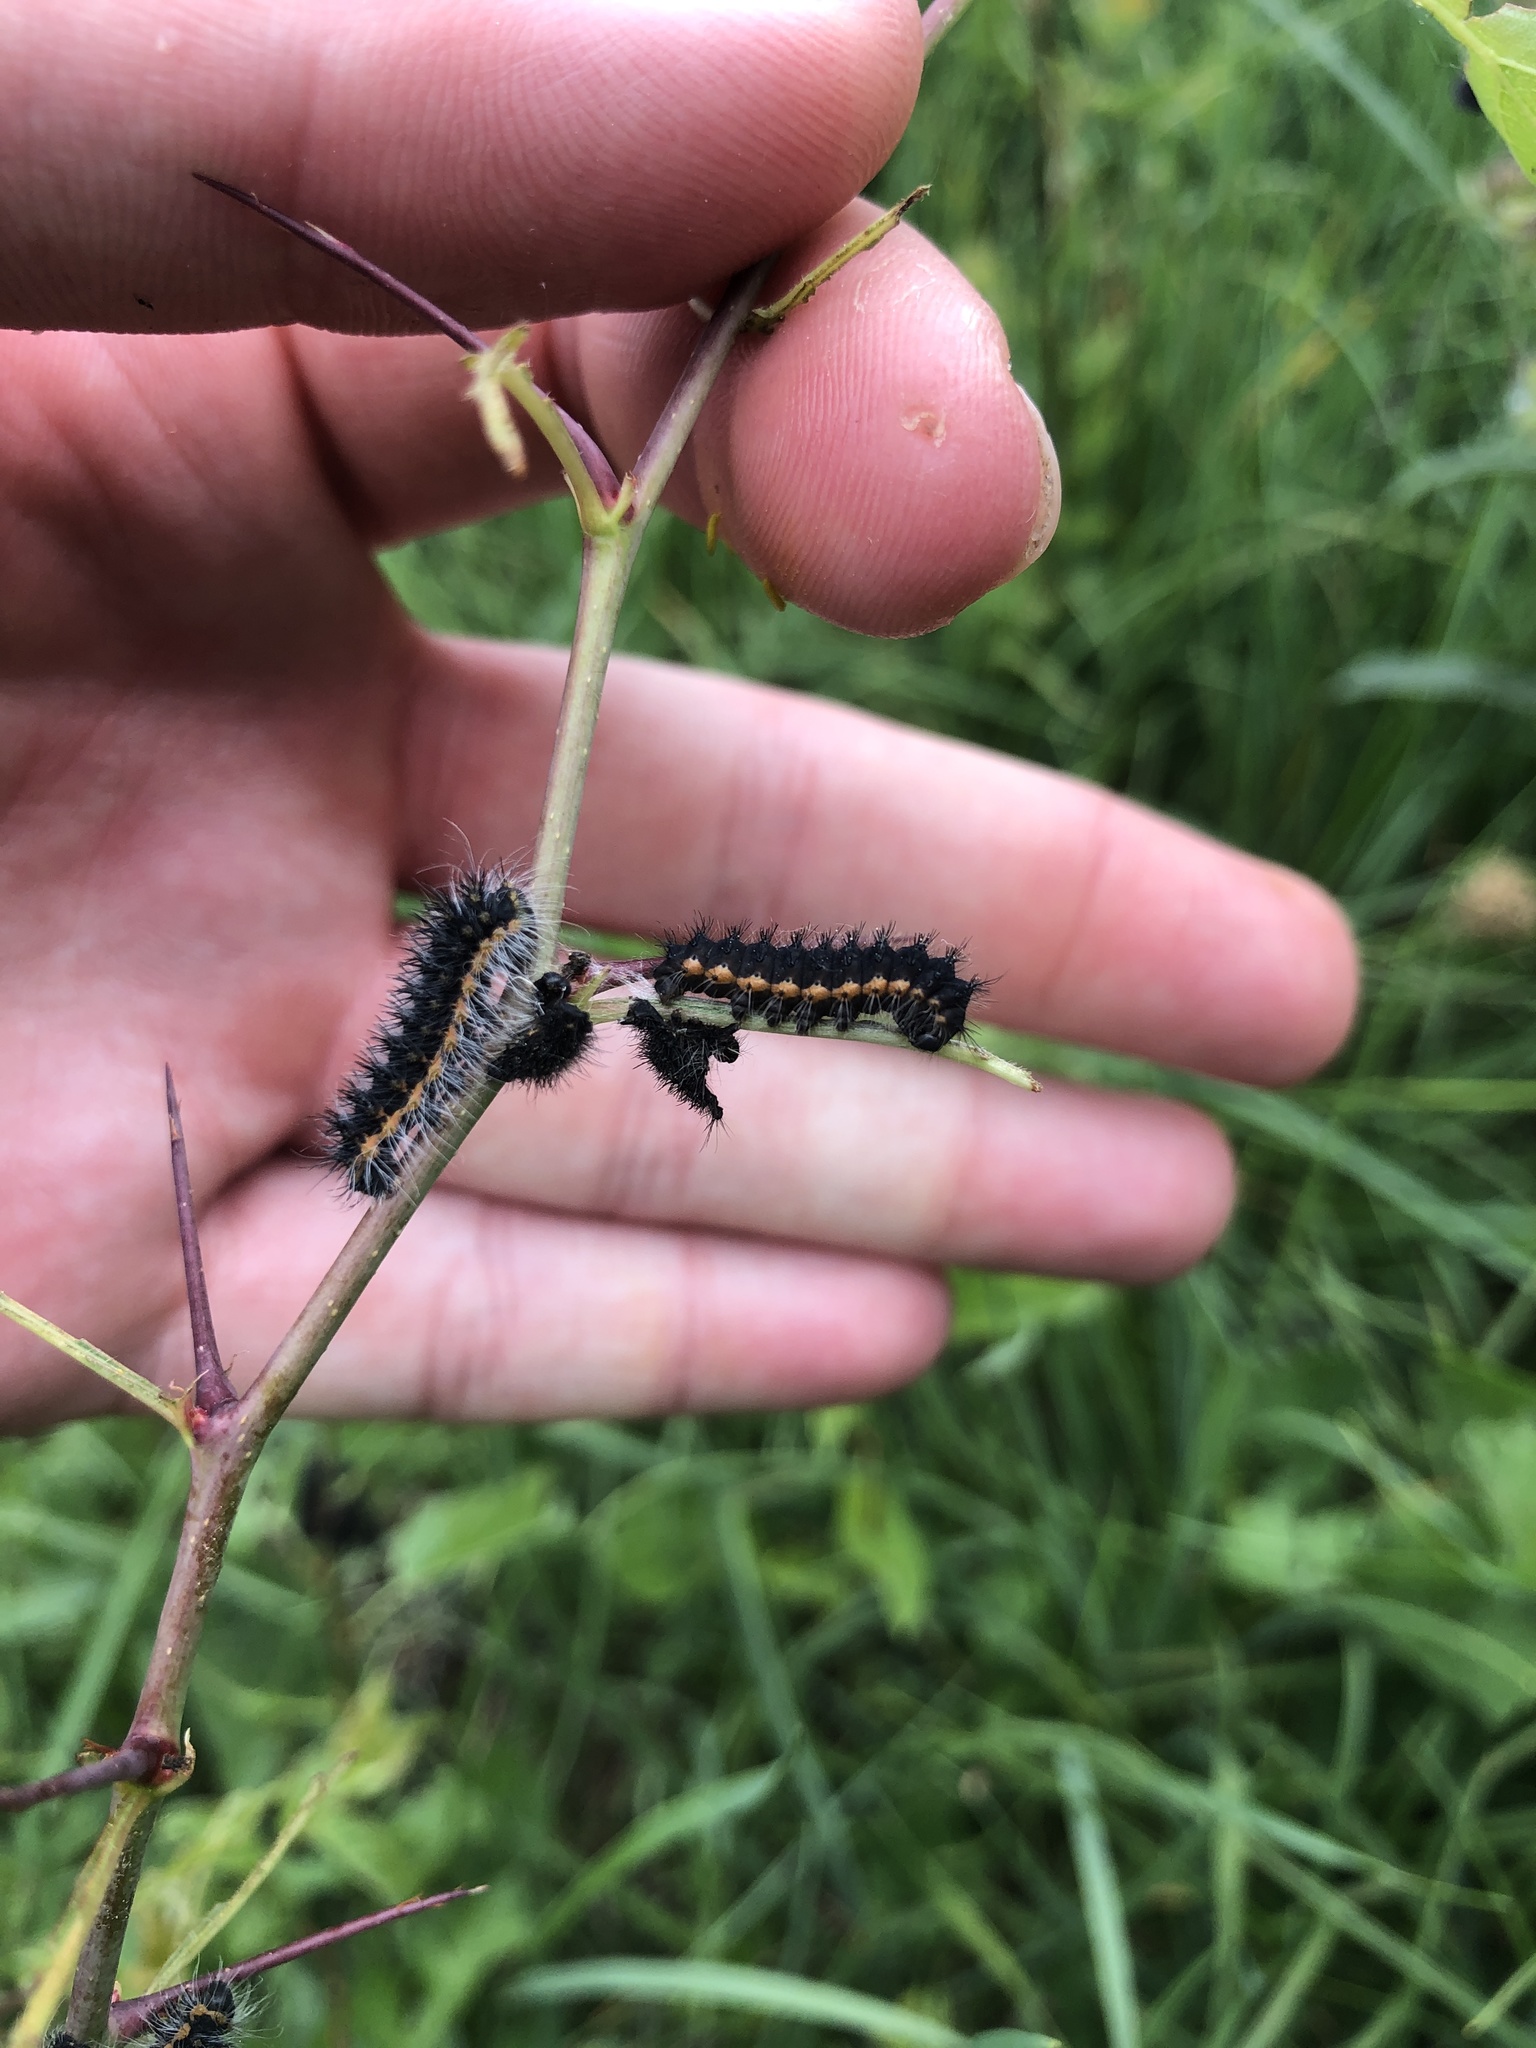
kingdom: Animalia
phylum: Arthropoda
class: Insecta
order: Lepidoptera
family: Saturniidae
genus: Saturnia
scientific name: Saturnia pavonia
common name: Emperor moth
